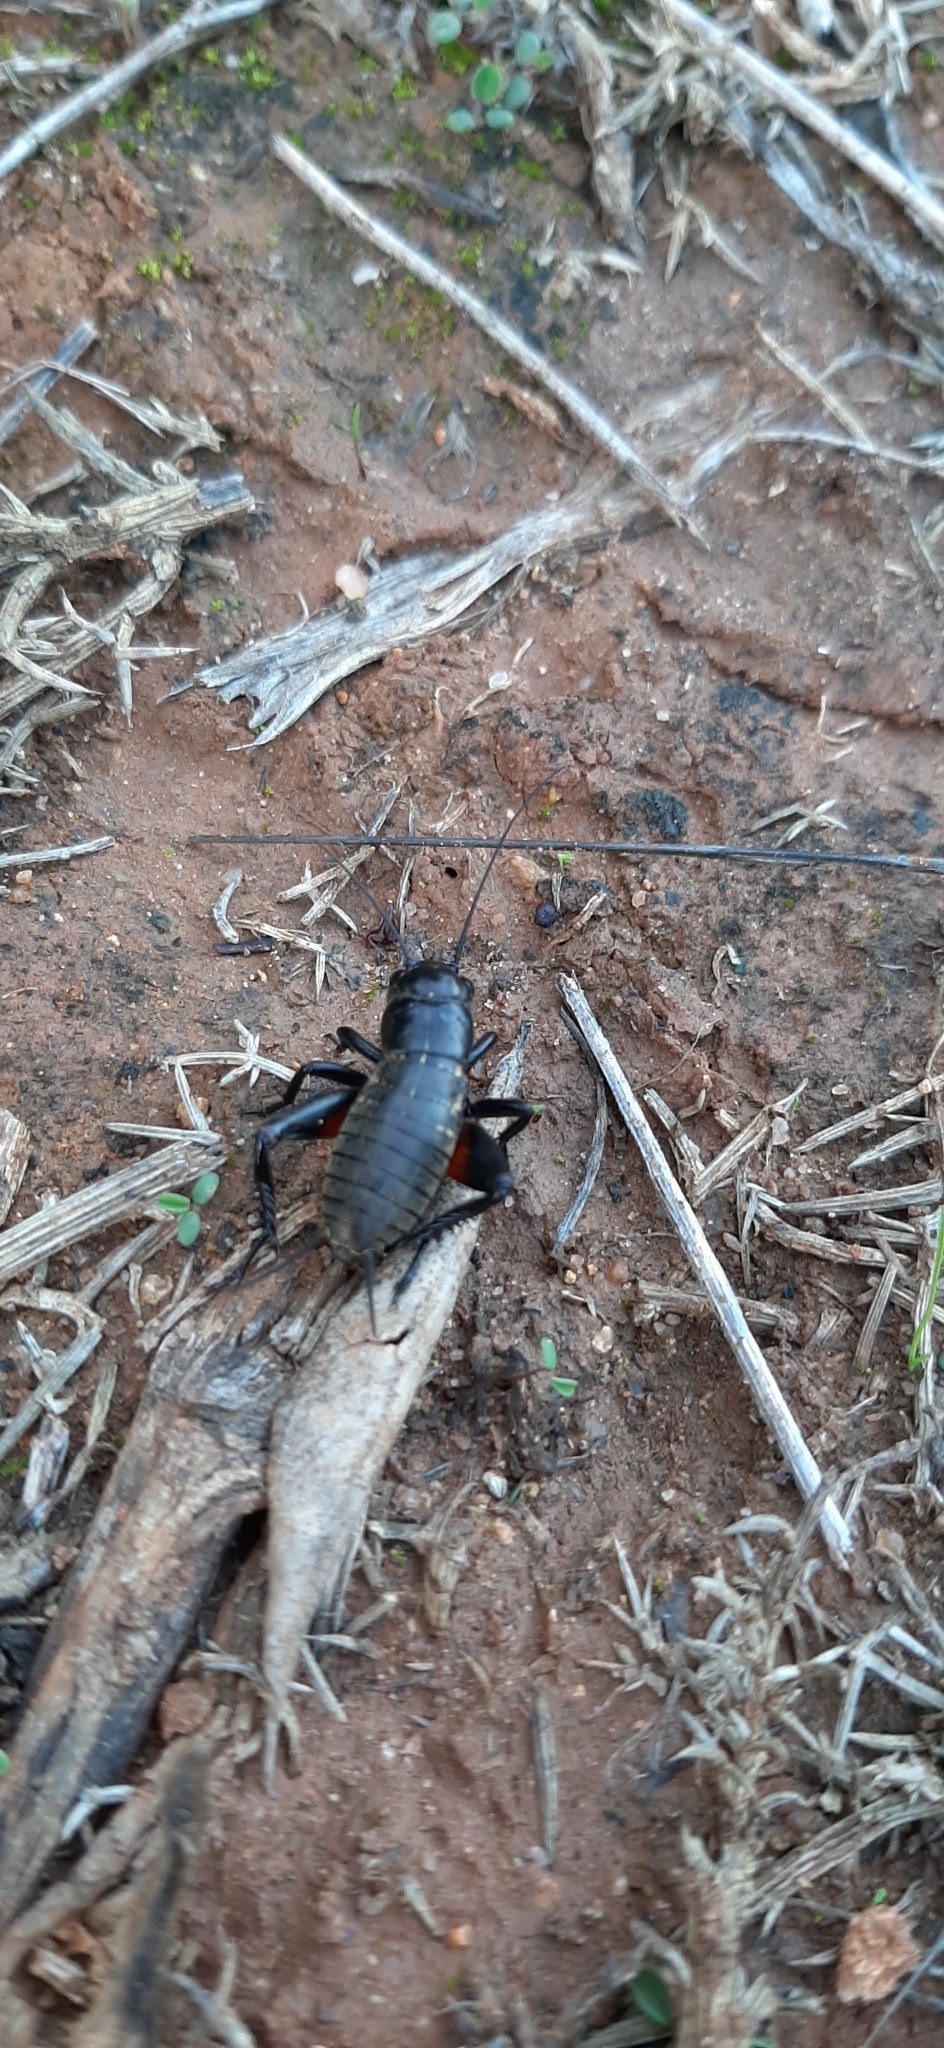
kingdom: Animalia
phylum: Arthropoda
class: Insecta
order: Orthoptera
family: Gryllidae
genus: Gryllus
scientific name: Gryllus campestris
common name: Field cricket
